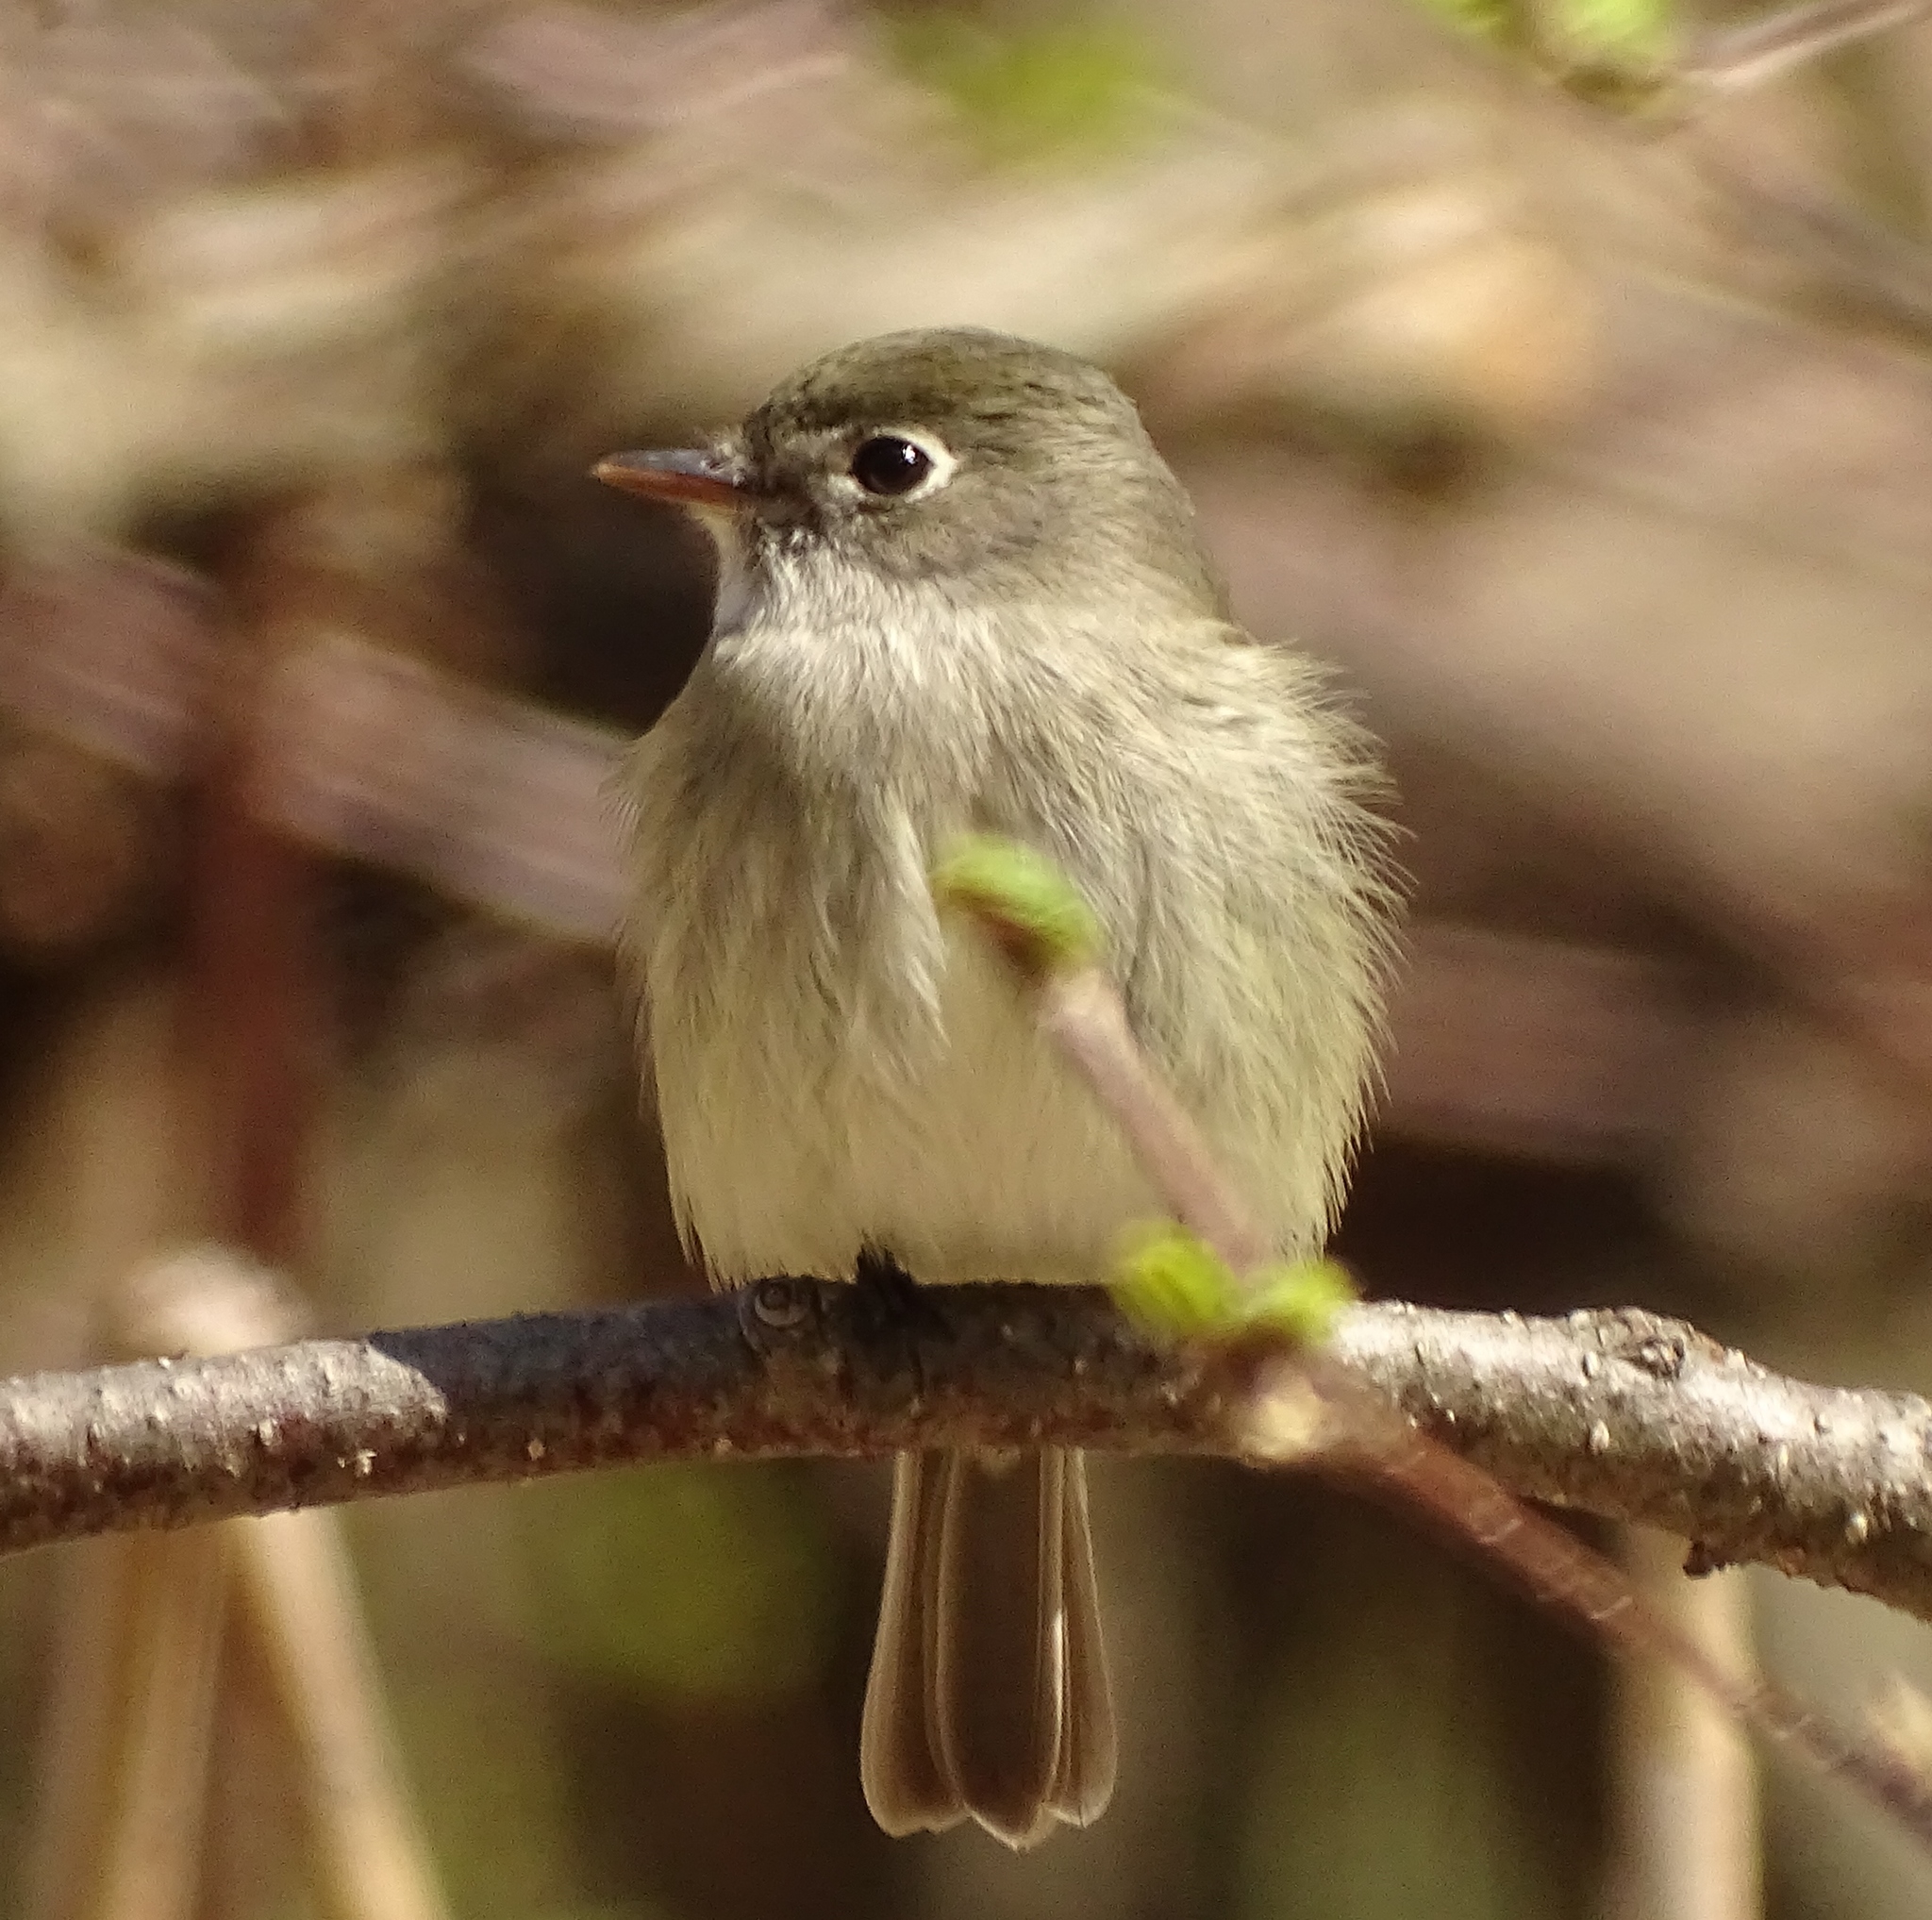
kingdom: Animalia
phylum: Chordata
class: Aves
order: Passeriformes
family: Tyrannidae
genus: Empidonax
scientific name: Empidonax minimus
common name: Least flycatcher
